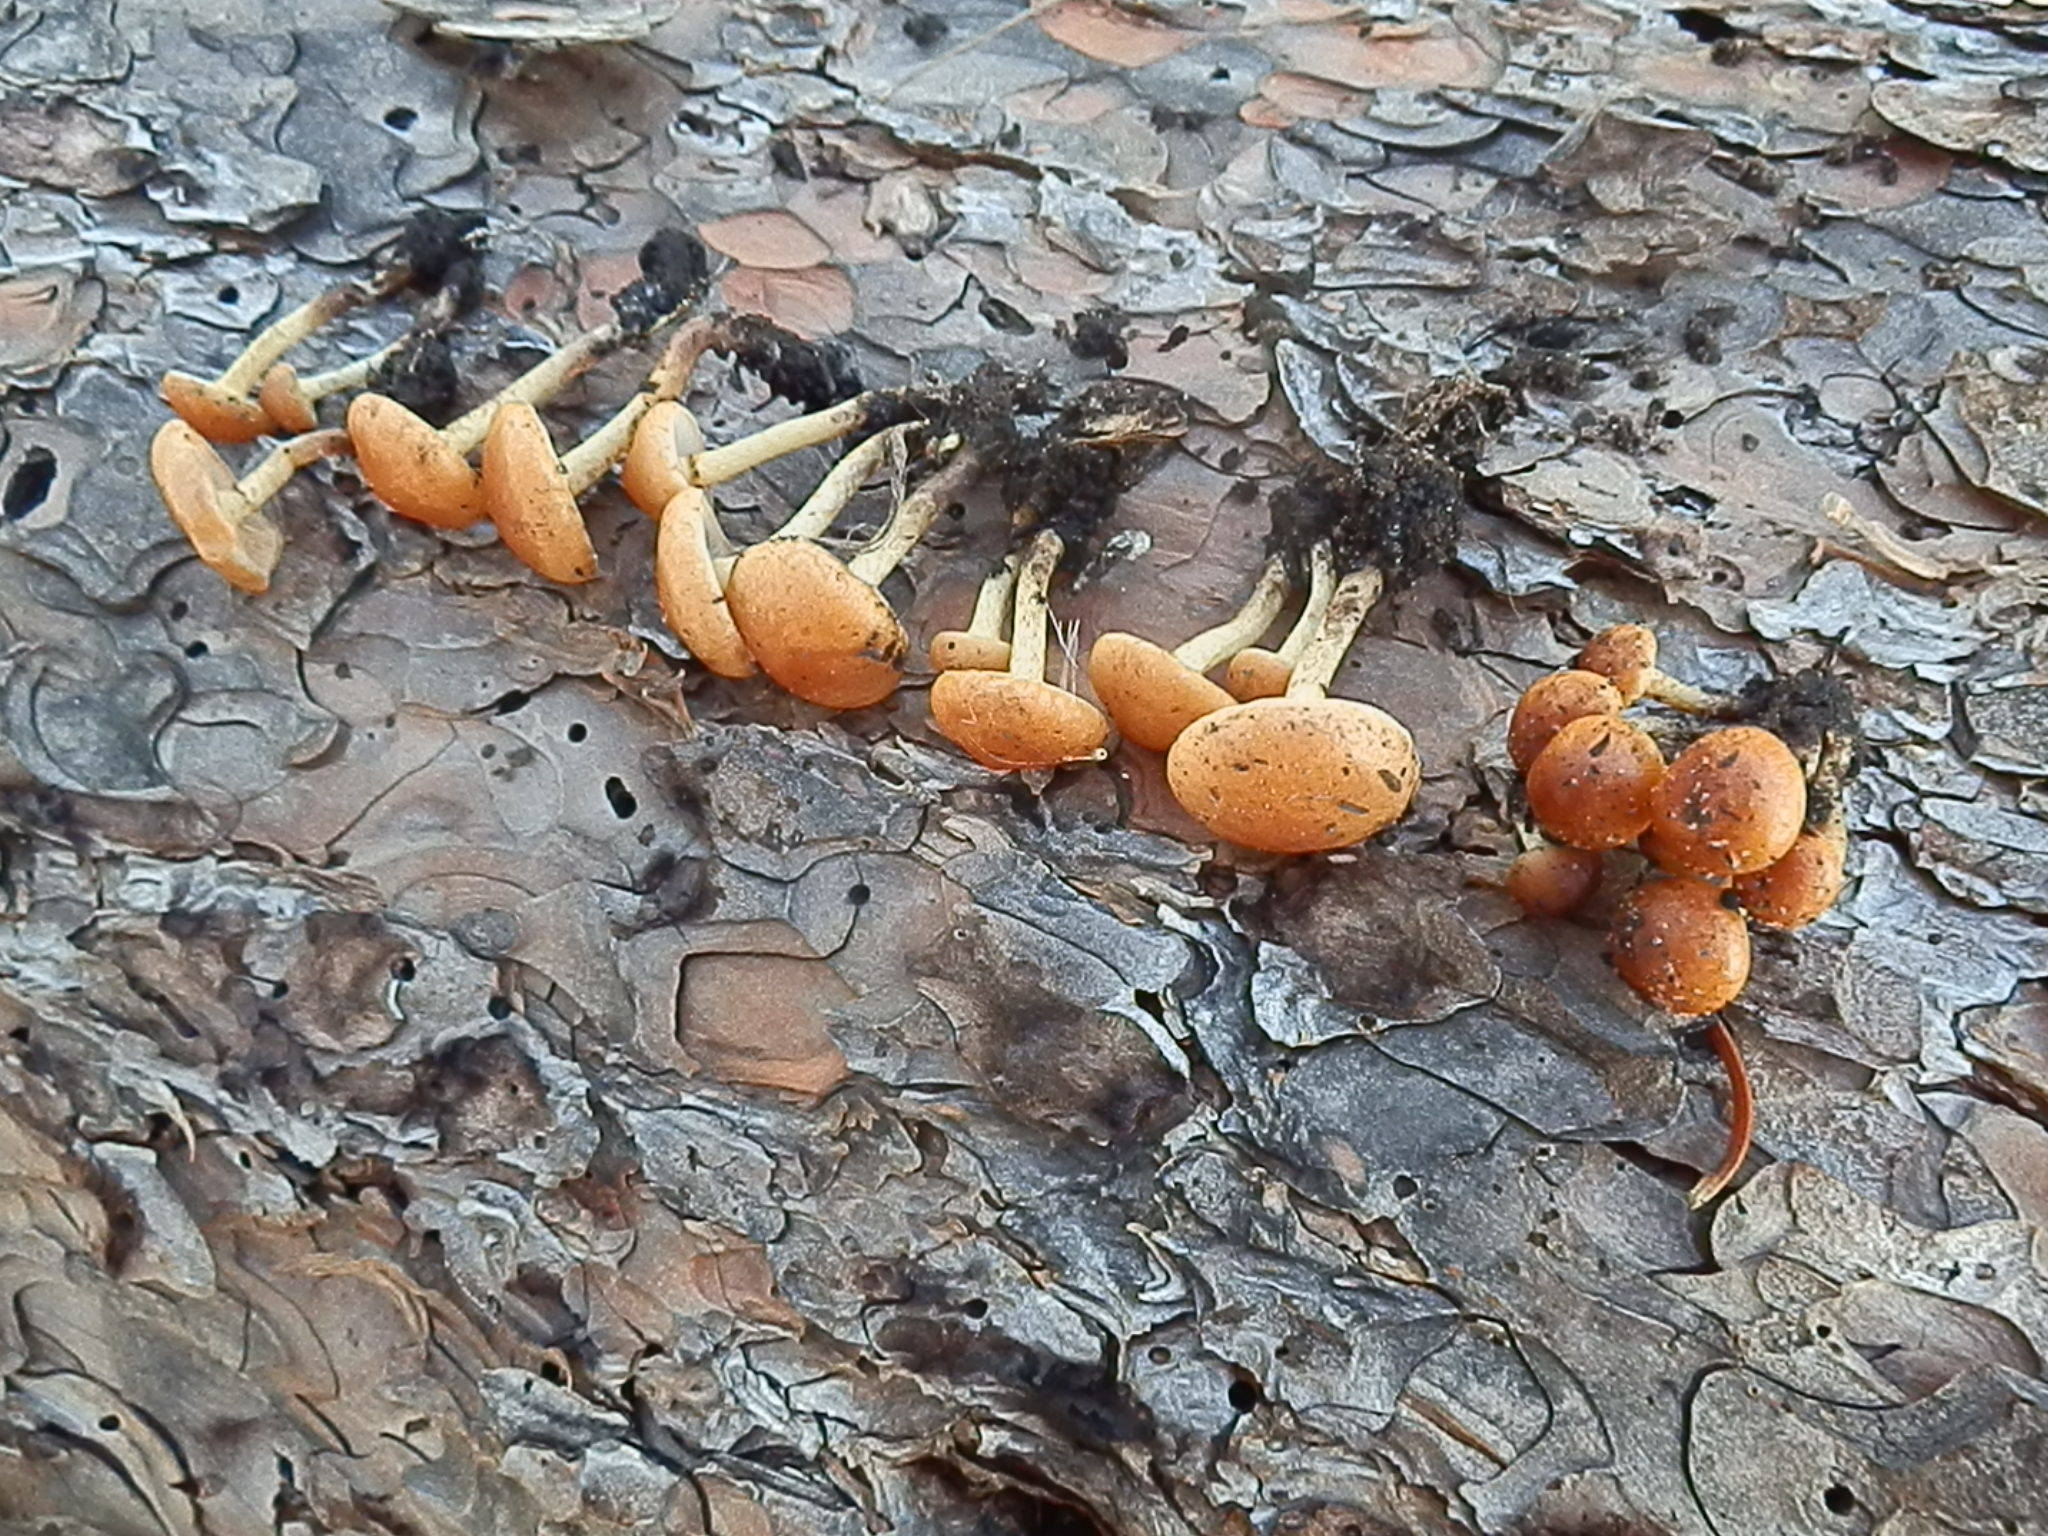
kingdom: Fungi
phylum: Basidiomycota
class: Agaricomycetes
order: Agaricales
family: Strophariaceae
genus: Pholiota
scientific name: Pholiota carbonaria
